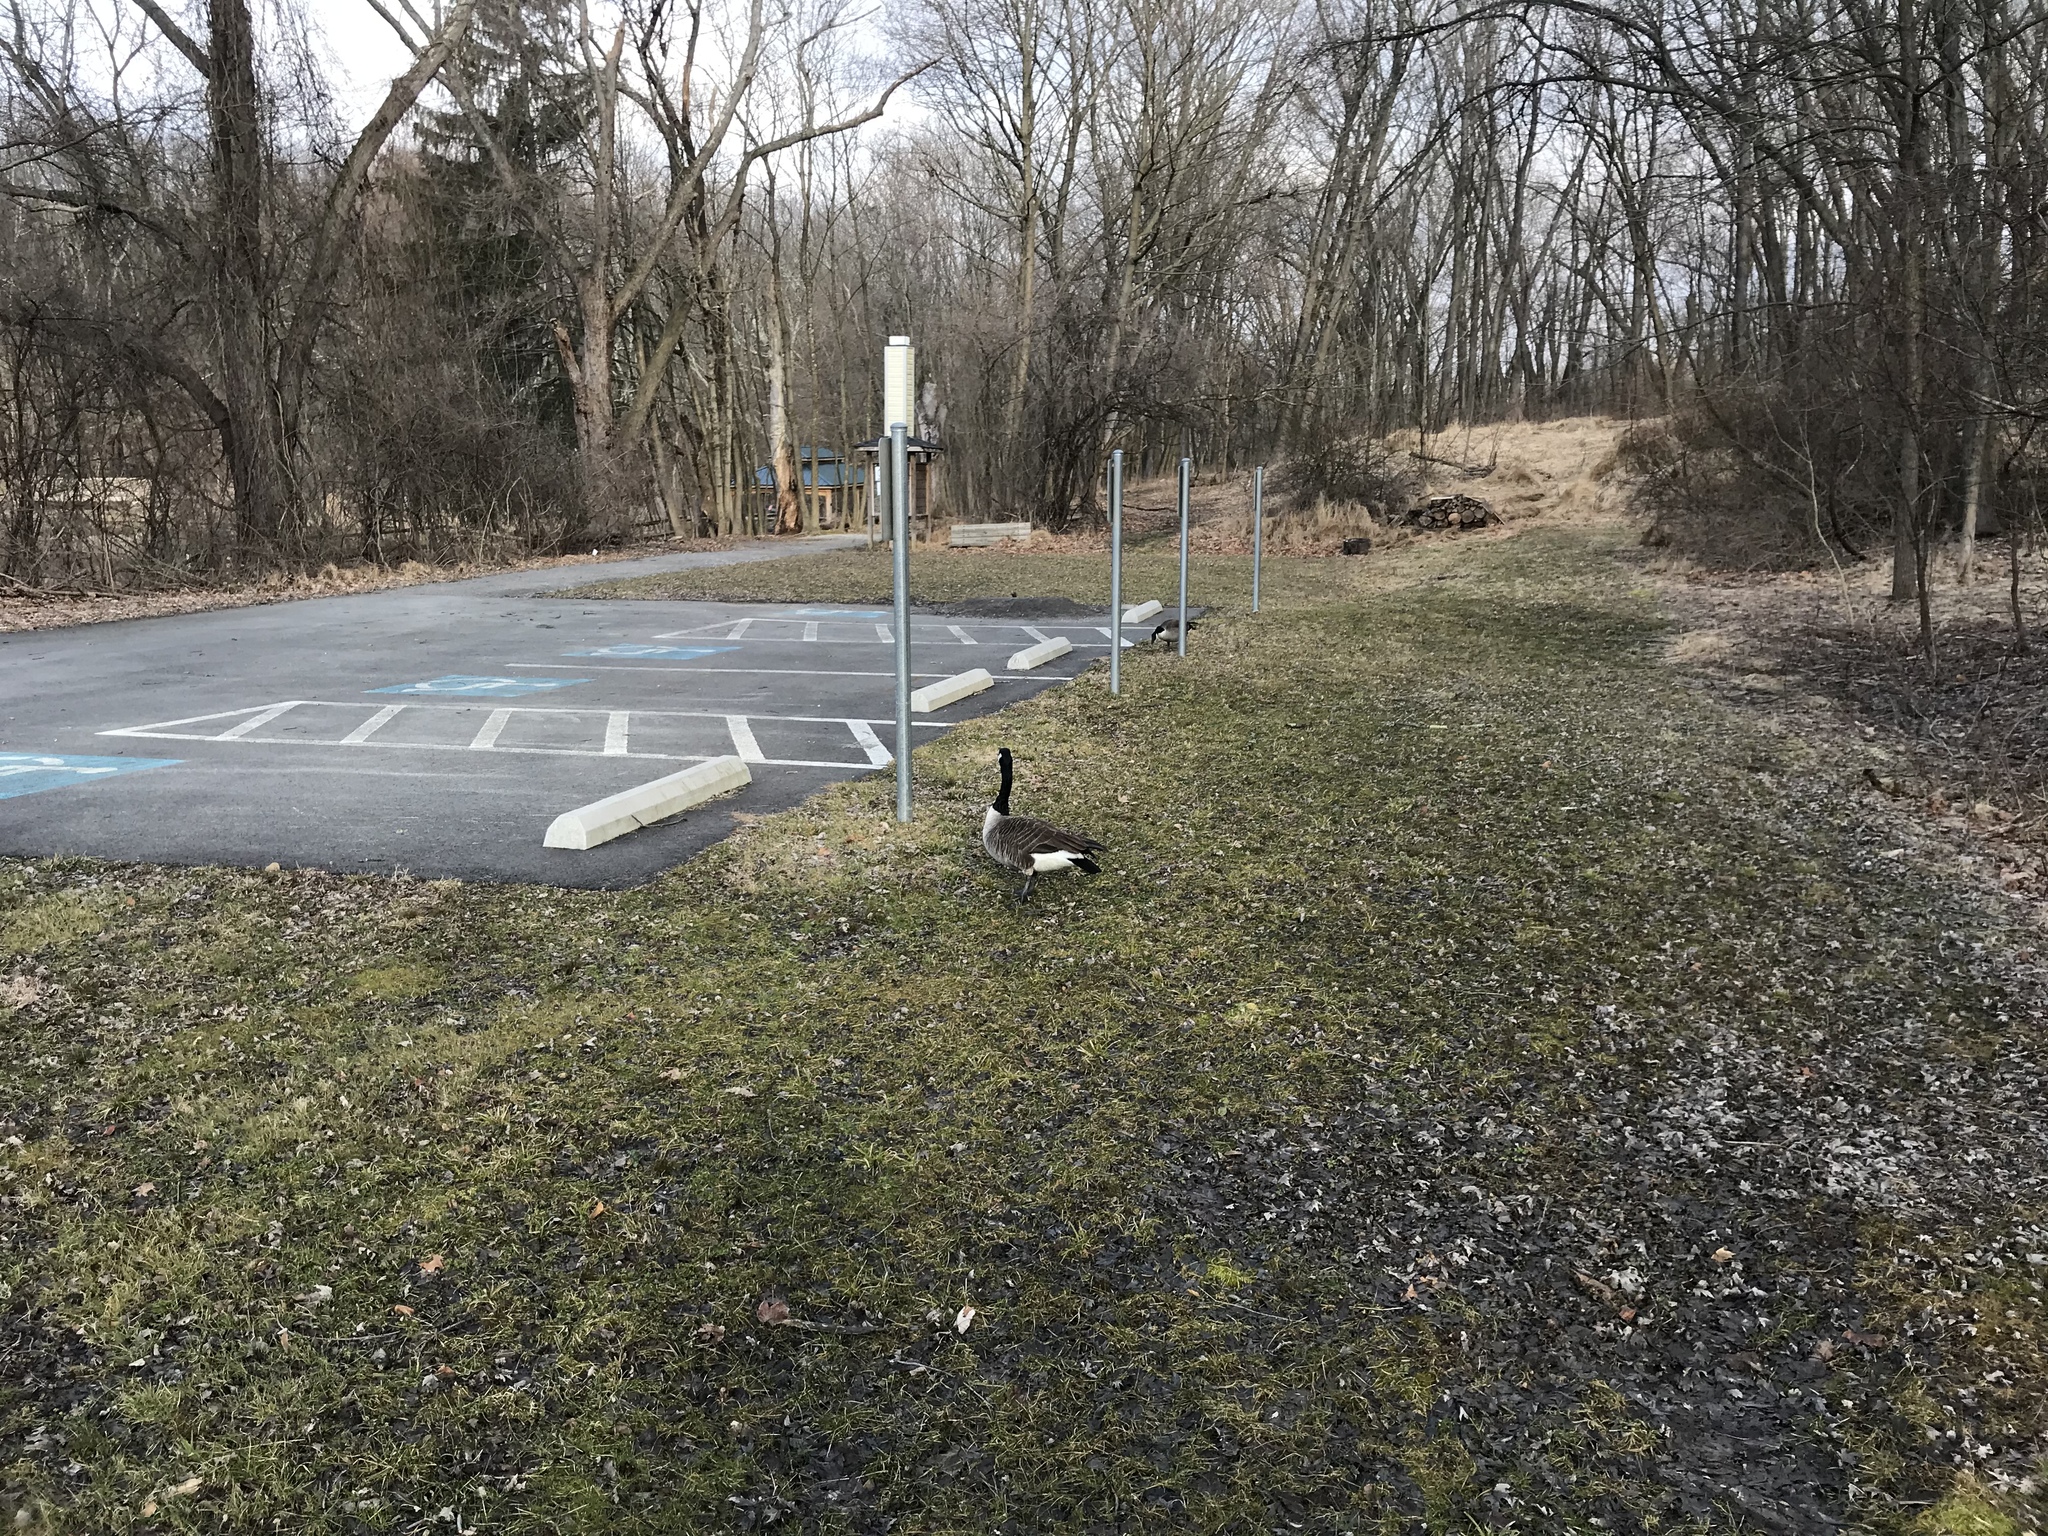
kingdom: Animalia
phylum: Chordata
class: Aves
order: Anseriformes
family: Anatidae
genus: Branta
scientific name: Branta canadensis
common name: Canada goose
